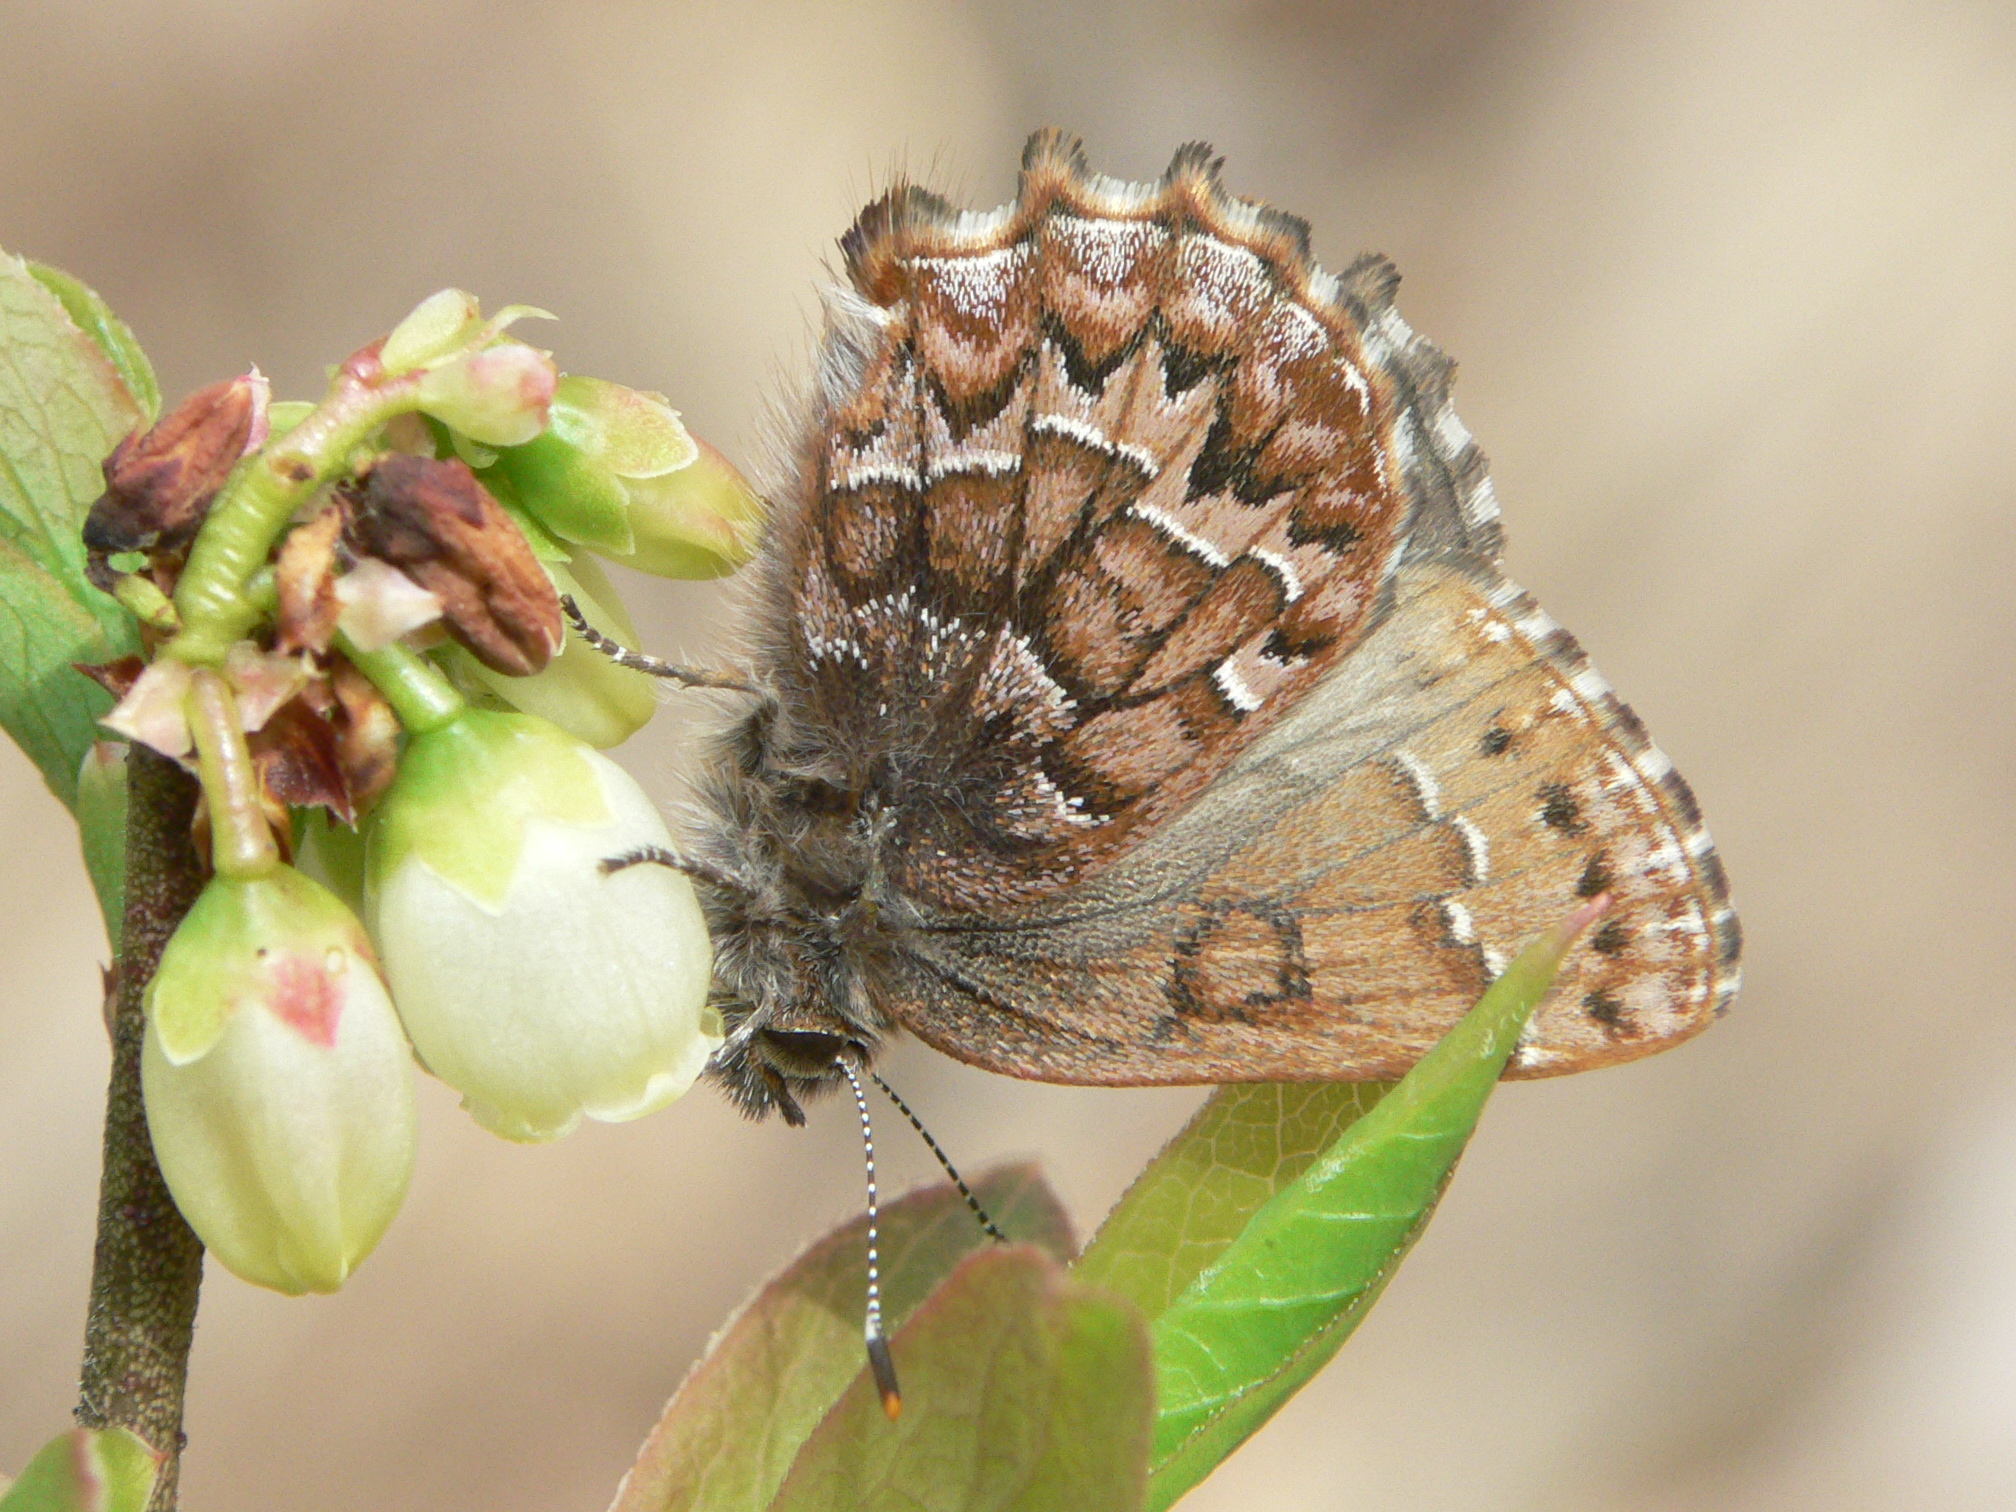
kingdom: Animalia
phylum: Arthropoda
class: Insecta
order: Lepidoptera
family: Lycaenidae
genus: Incisalia
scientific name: Incisalia niphon
